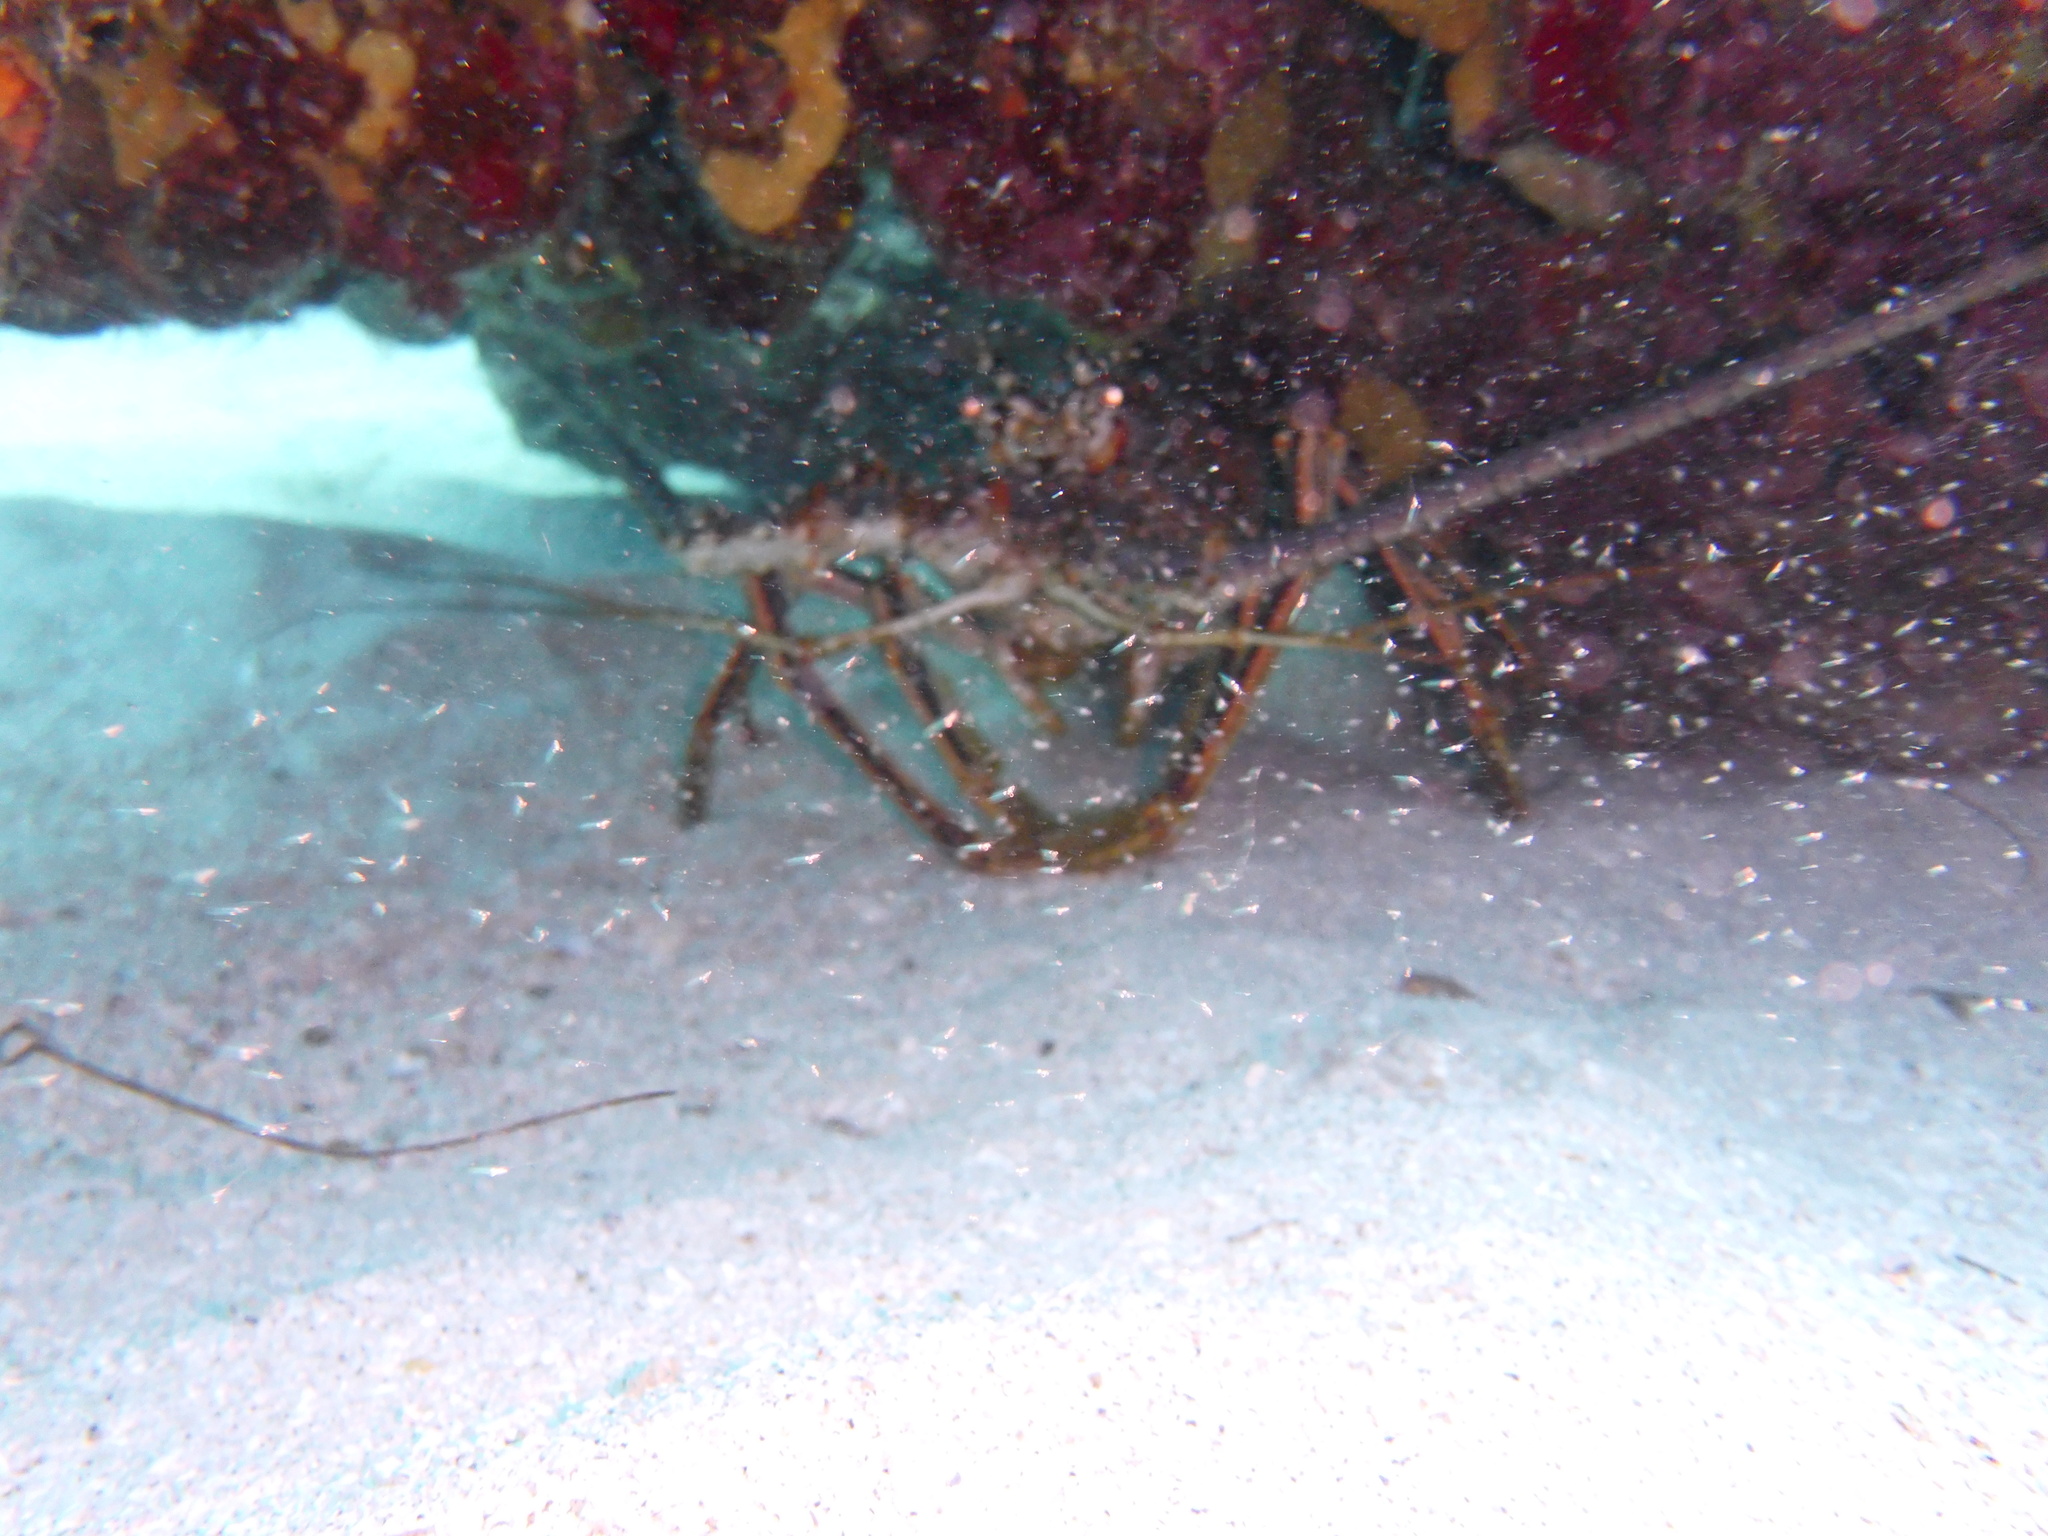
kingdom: Animalia
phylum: Arthropoda
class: Malacostraca
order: Decapoda
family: Palinuridae
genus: Panulirus
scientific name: Panulirus argus
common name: Caribbean spiny lobster
